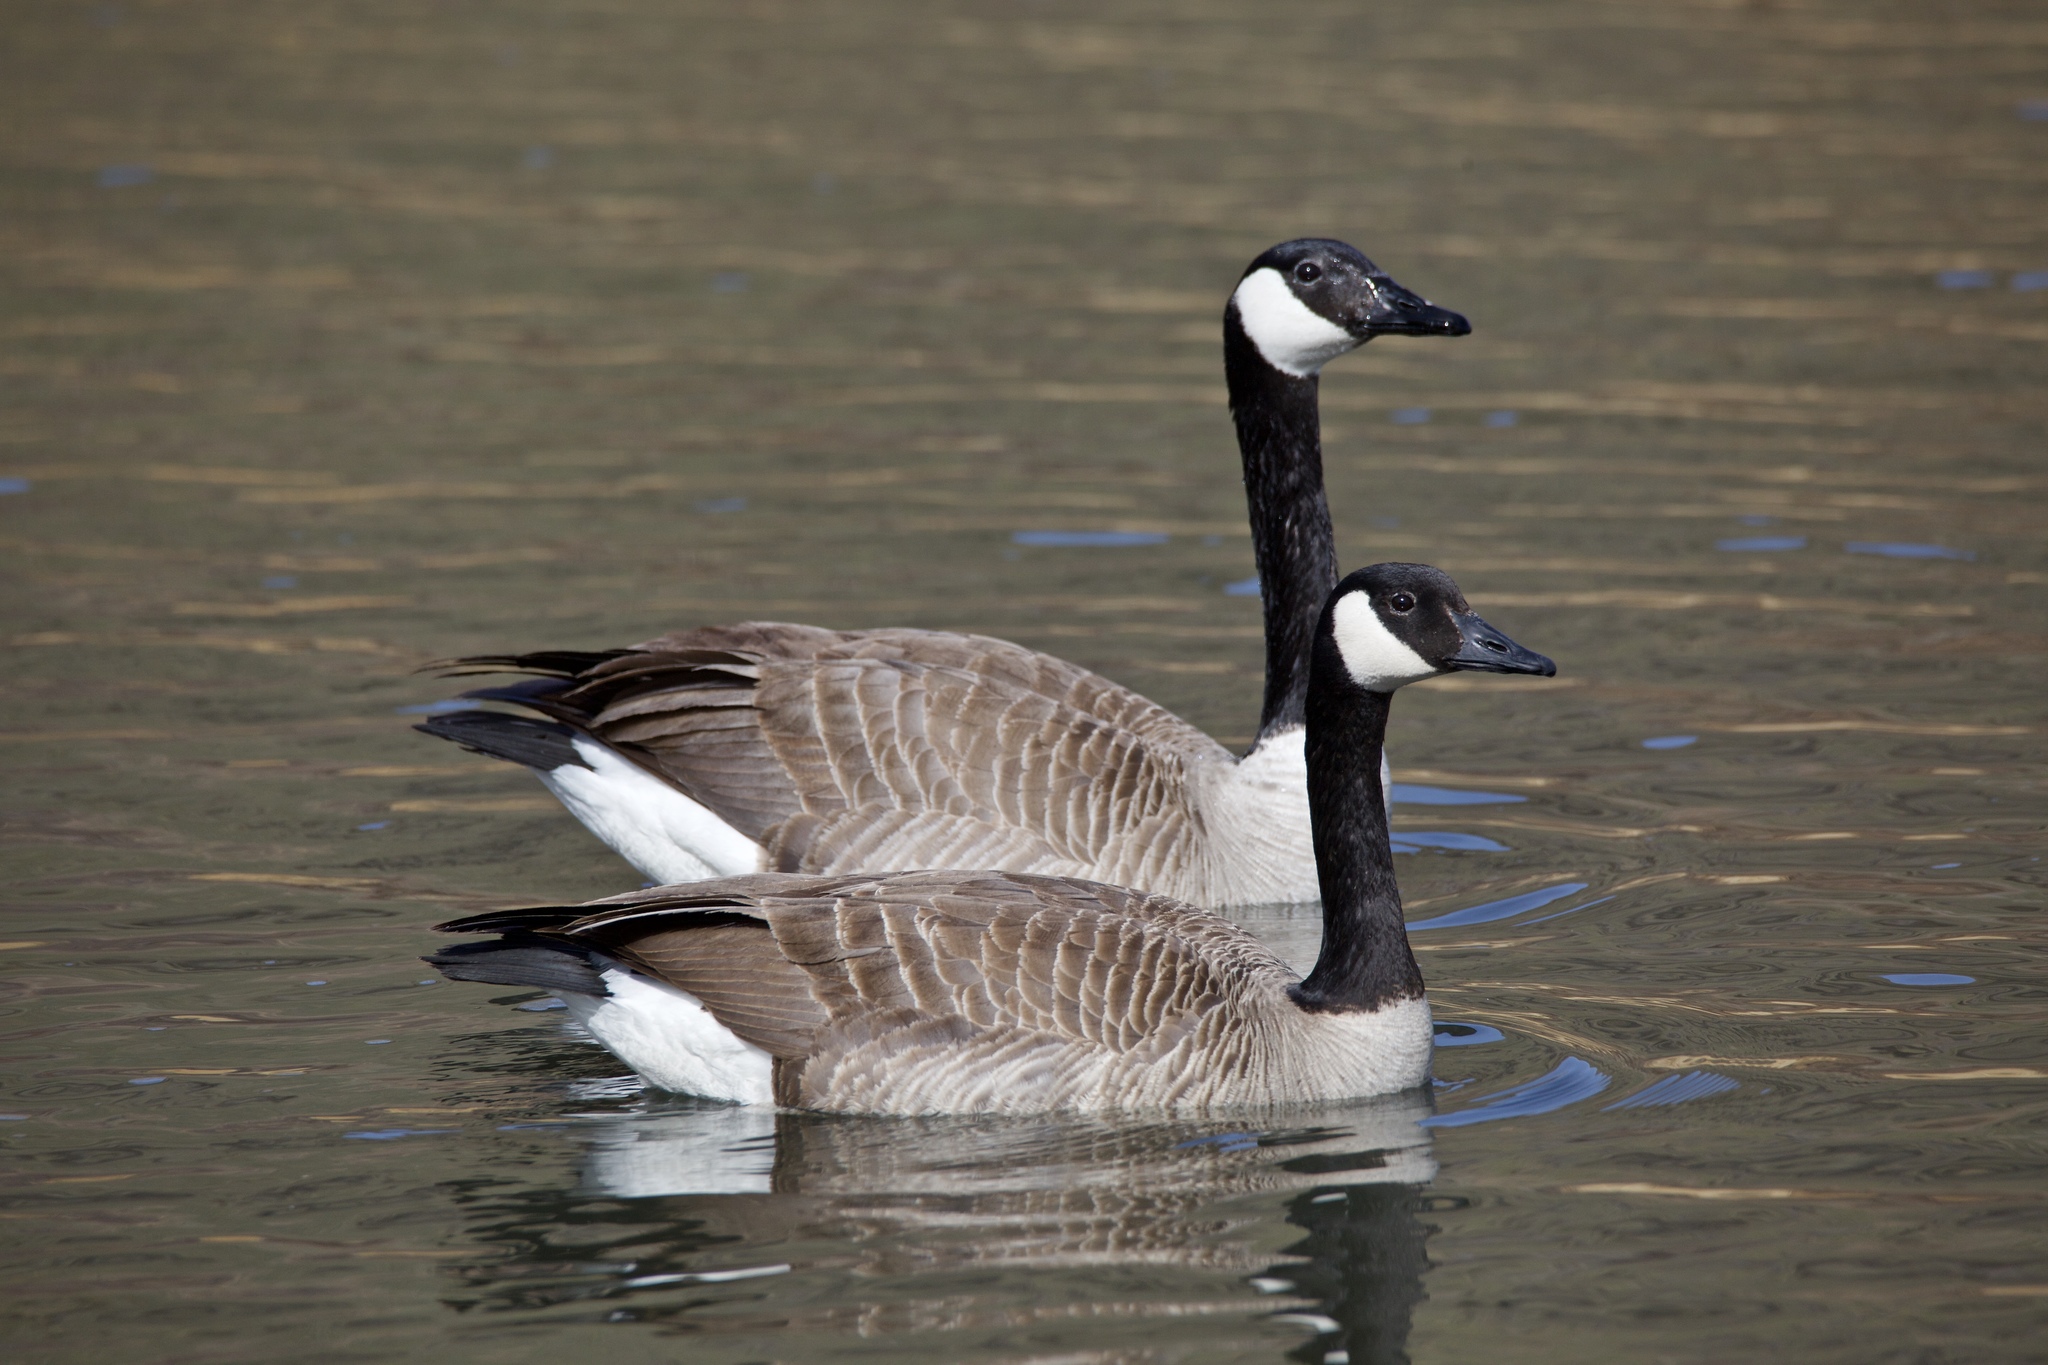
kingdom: Animalia
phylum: Chordata
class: Aves
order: Anseriformes
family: Anatidae
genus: Branta
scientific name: Branta canadensis
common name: Canada goose
